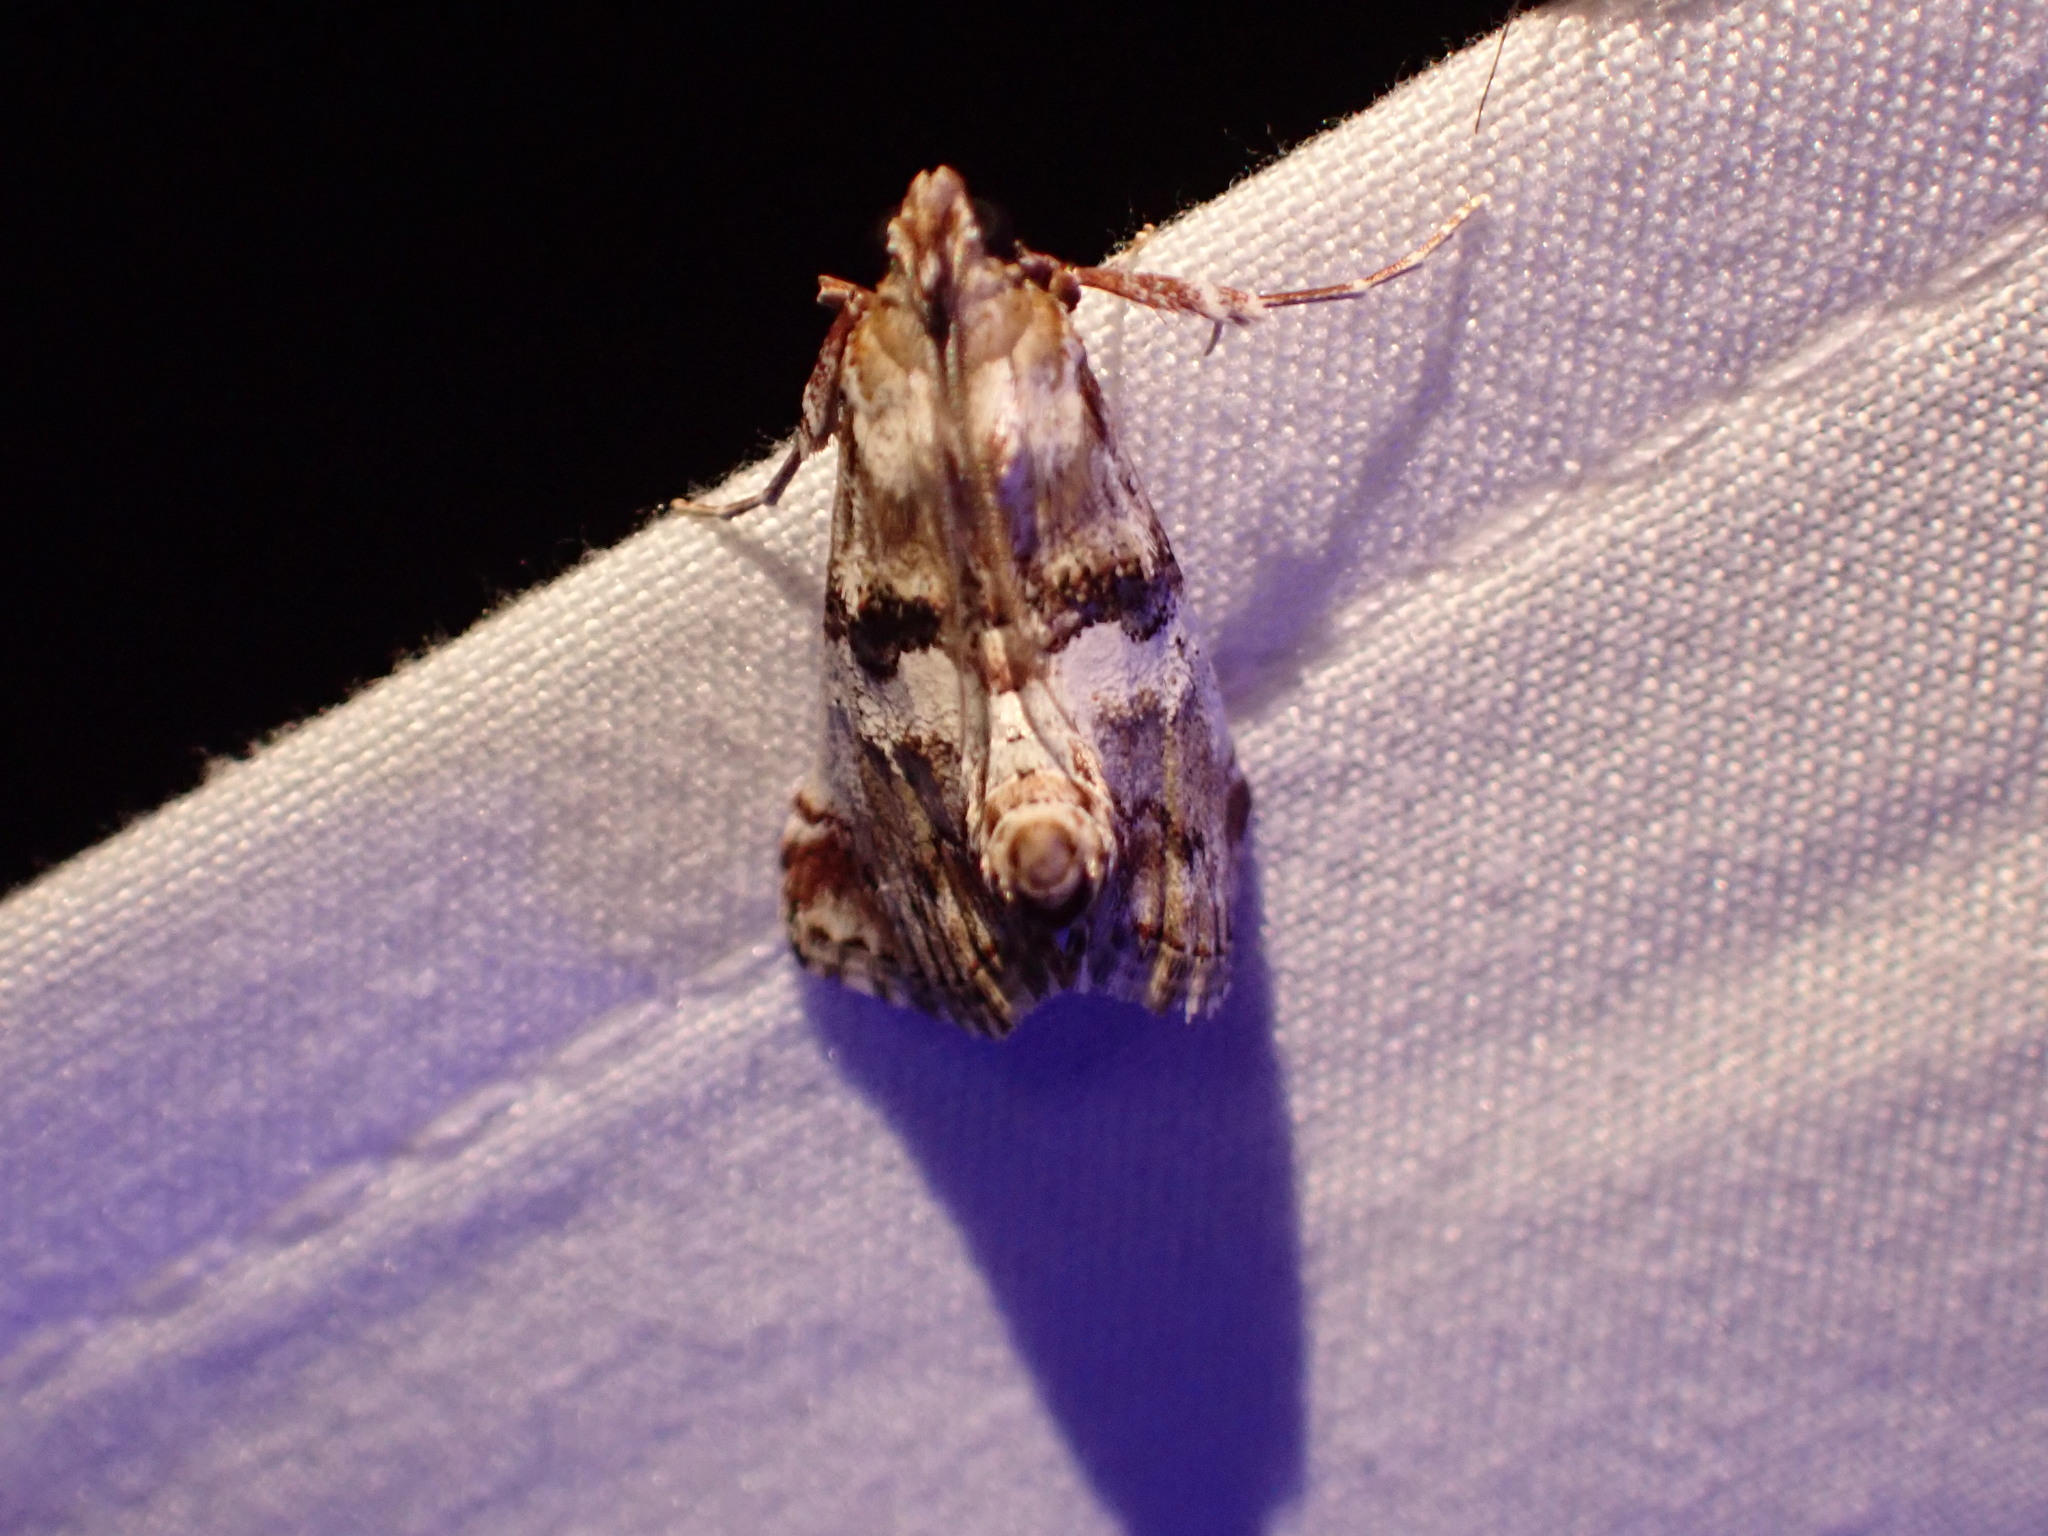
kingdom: Animalia
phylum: Arthropoda
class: Insecta
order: Lepidoptera
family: Pyralidae
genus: Toripalpus
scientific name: Toripalpus trabalis
